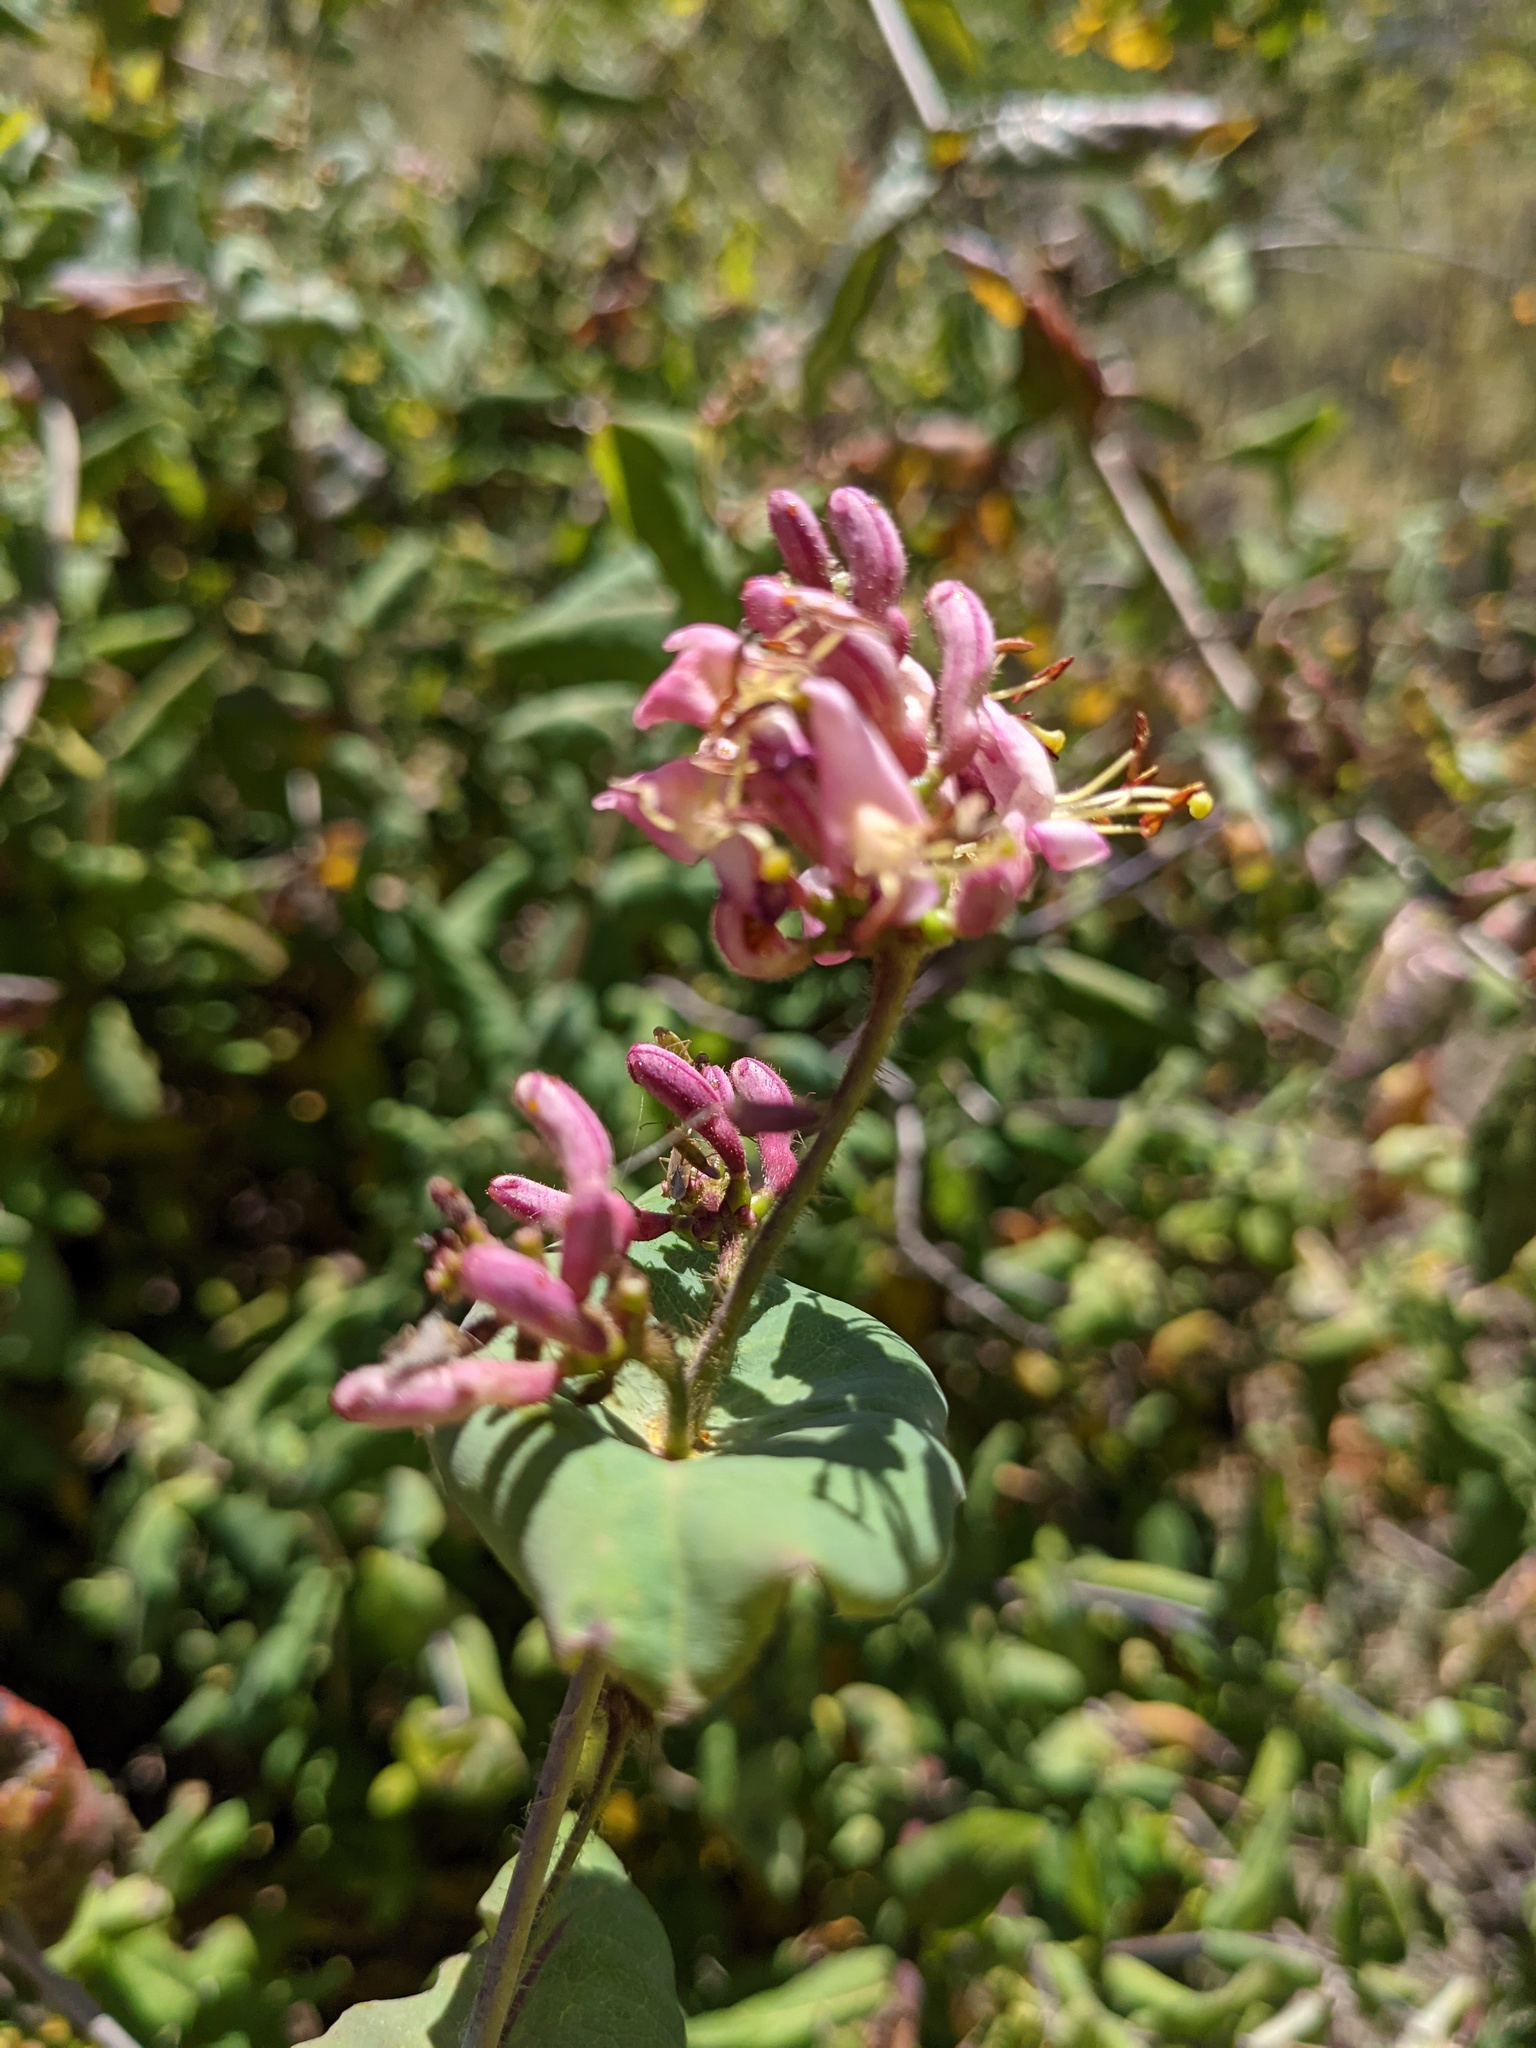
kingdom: Plantae
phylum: Tracheophyta
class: Magnoliopsida
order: Dipsacales
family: Caprifoliaceae
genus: Lonicera
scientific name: Lonicera hispidula
